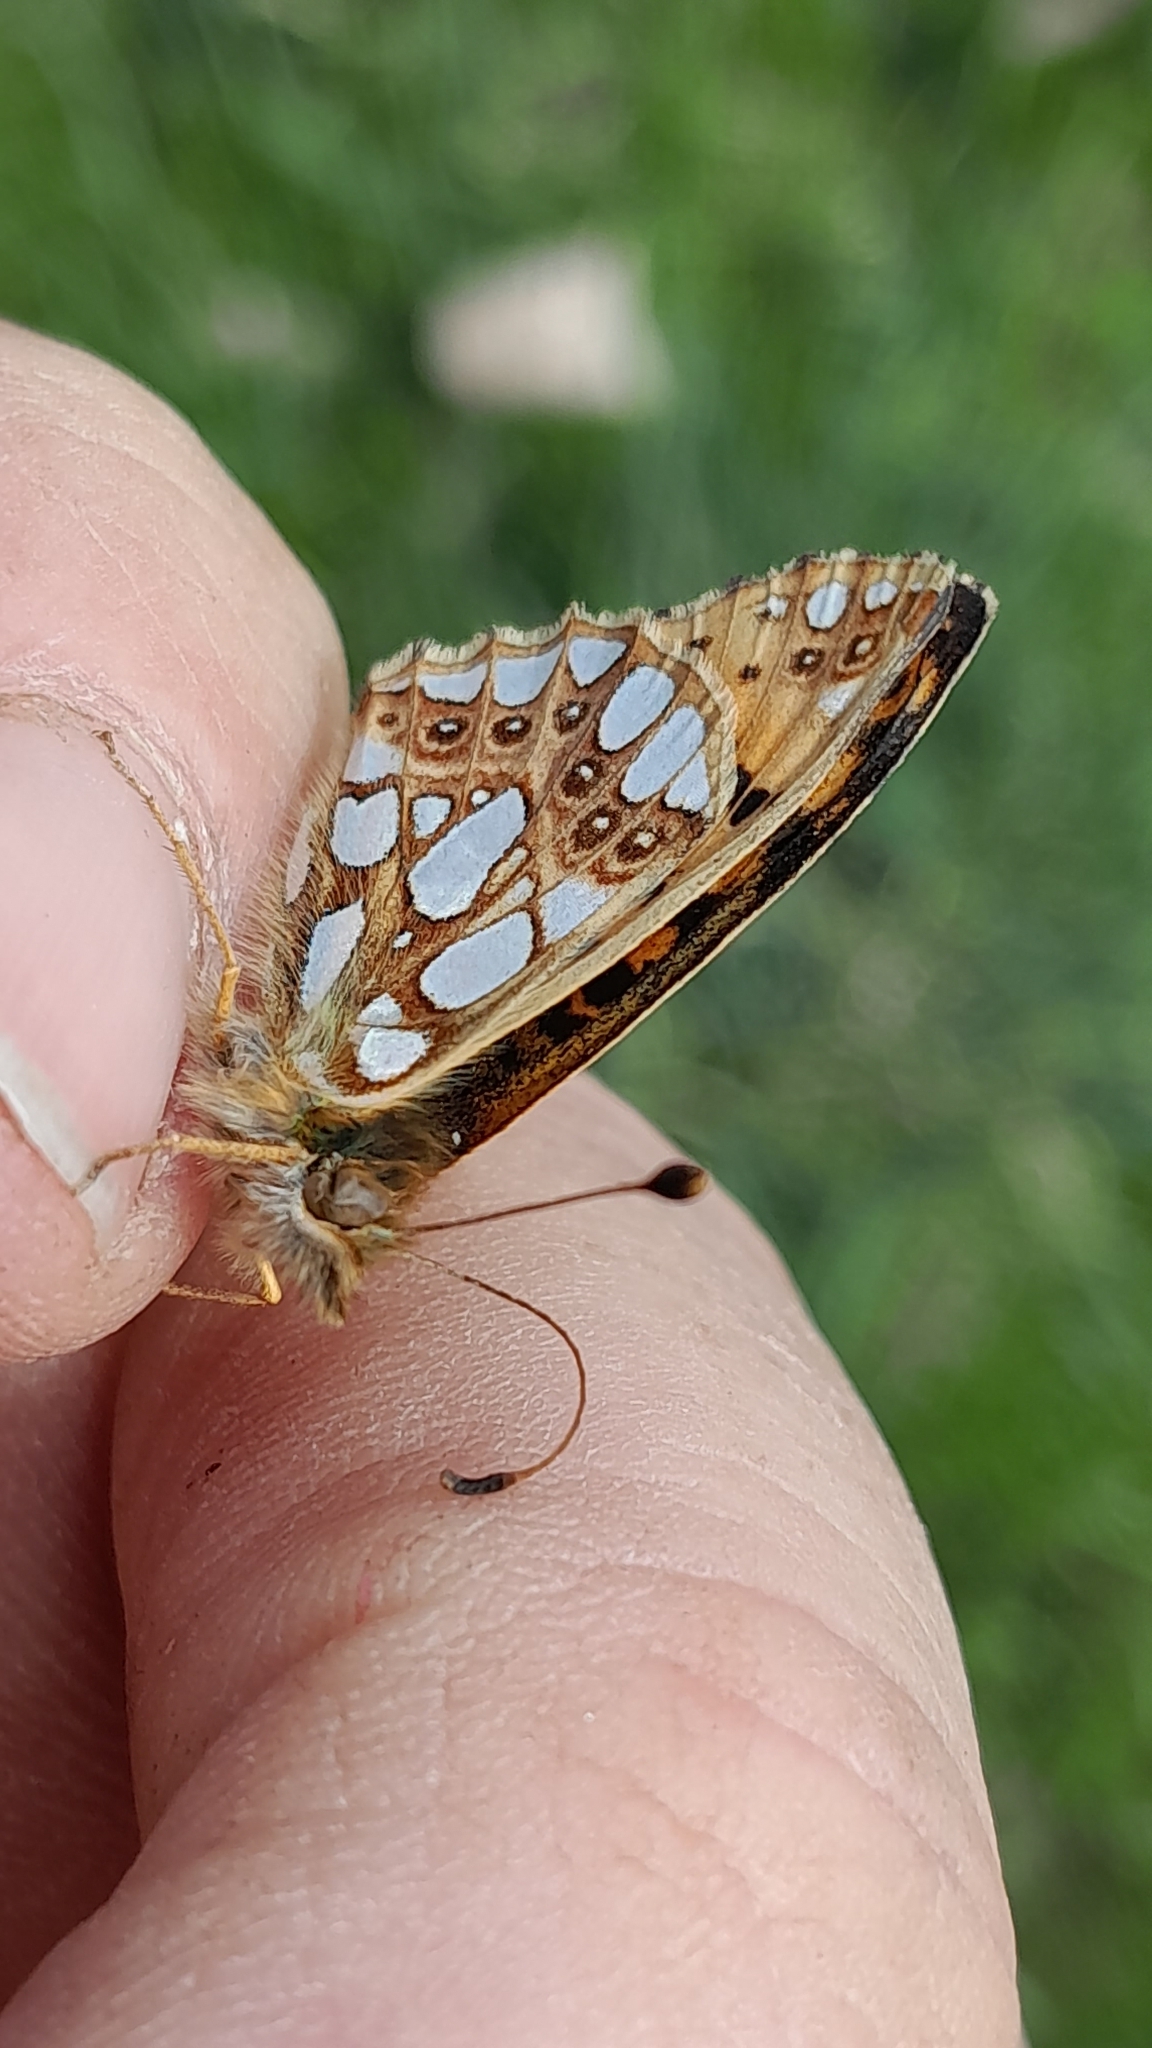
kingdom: Animalia
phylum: Arthropoda
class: Insecta
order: Lepidoptera
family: Nymphalidae
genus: Issoria
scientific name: Issoria lathonia
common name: Queen of spain fritillary
